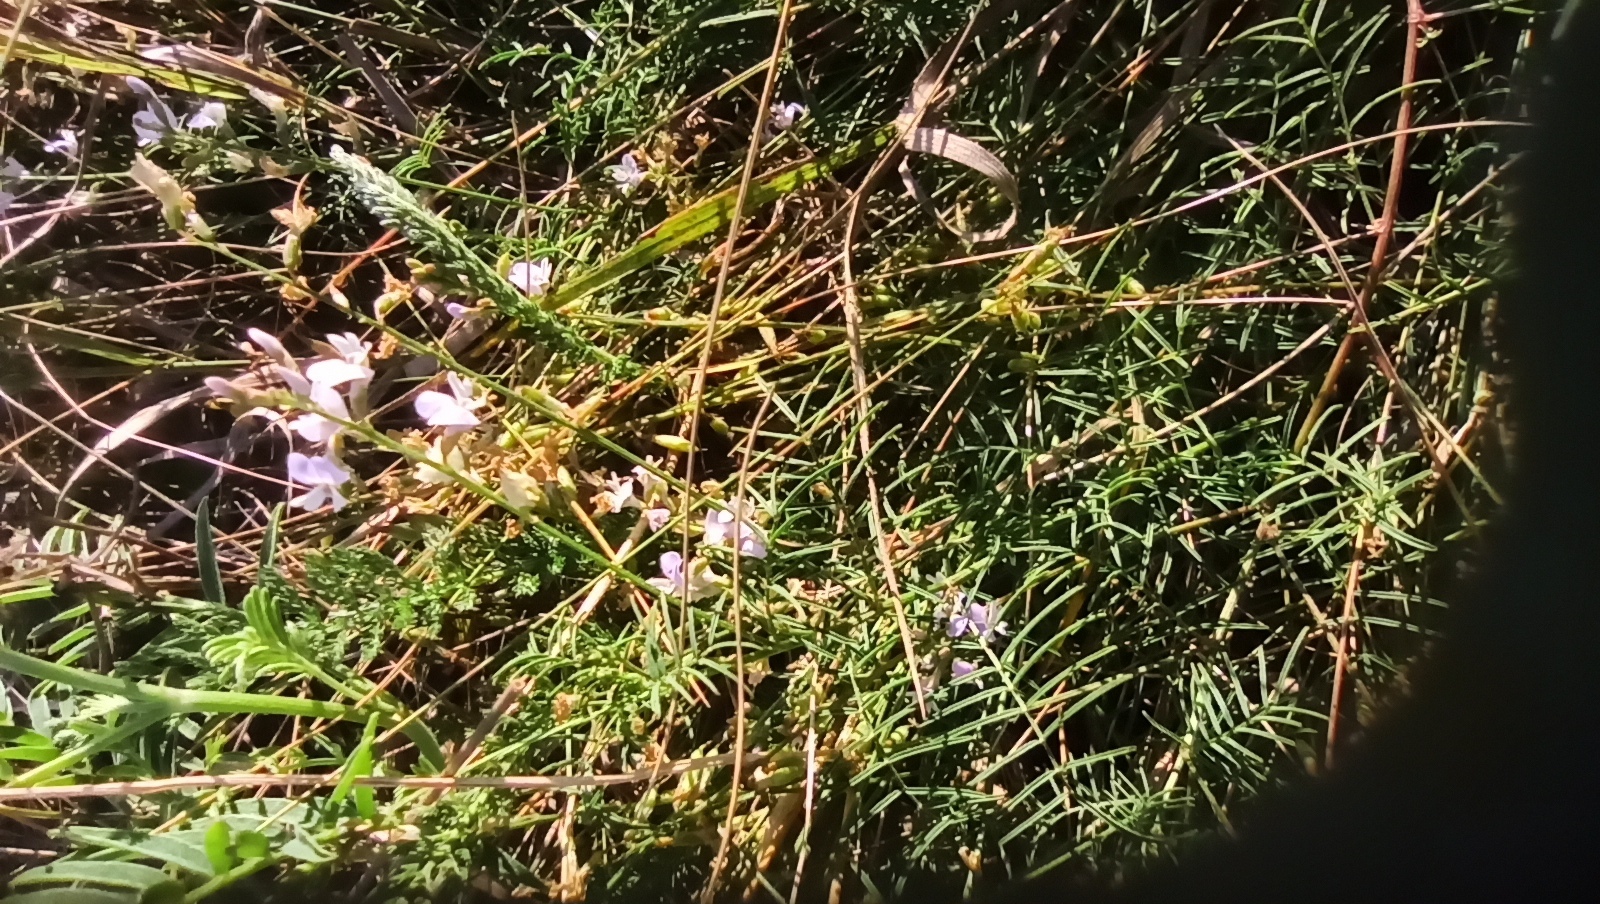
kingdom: Plantae
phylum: Tracheophyta
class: Magnoliopsida
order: Fabales
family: Fabaceae
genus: Astragalus
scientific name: Astragalus austriacus
